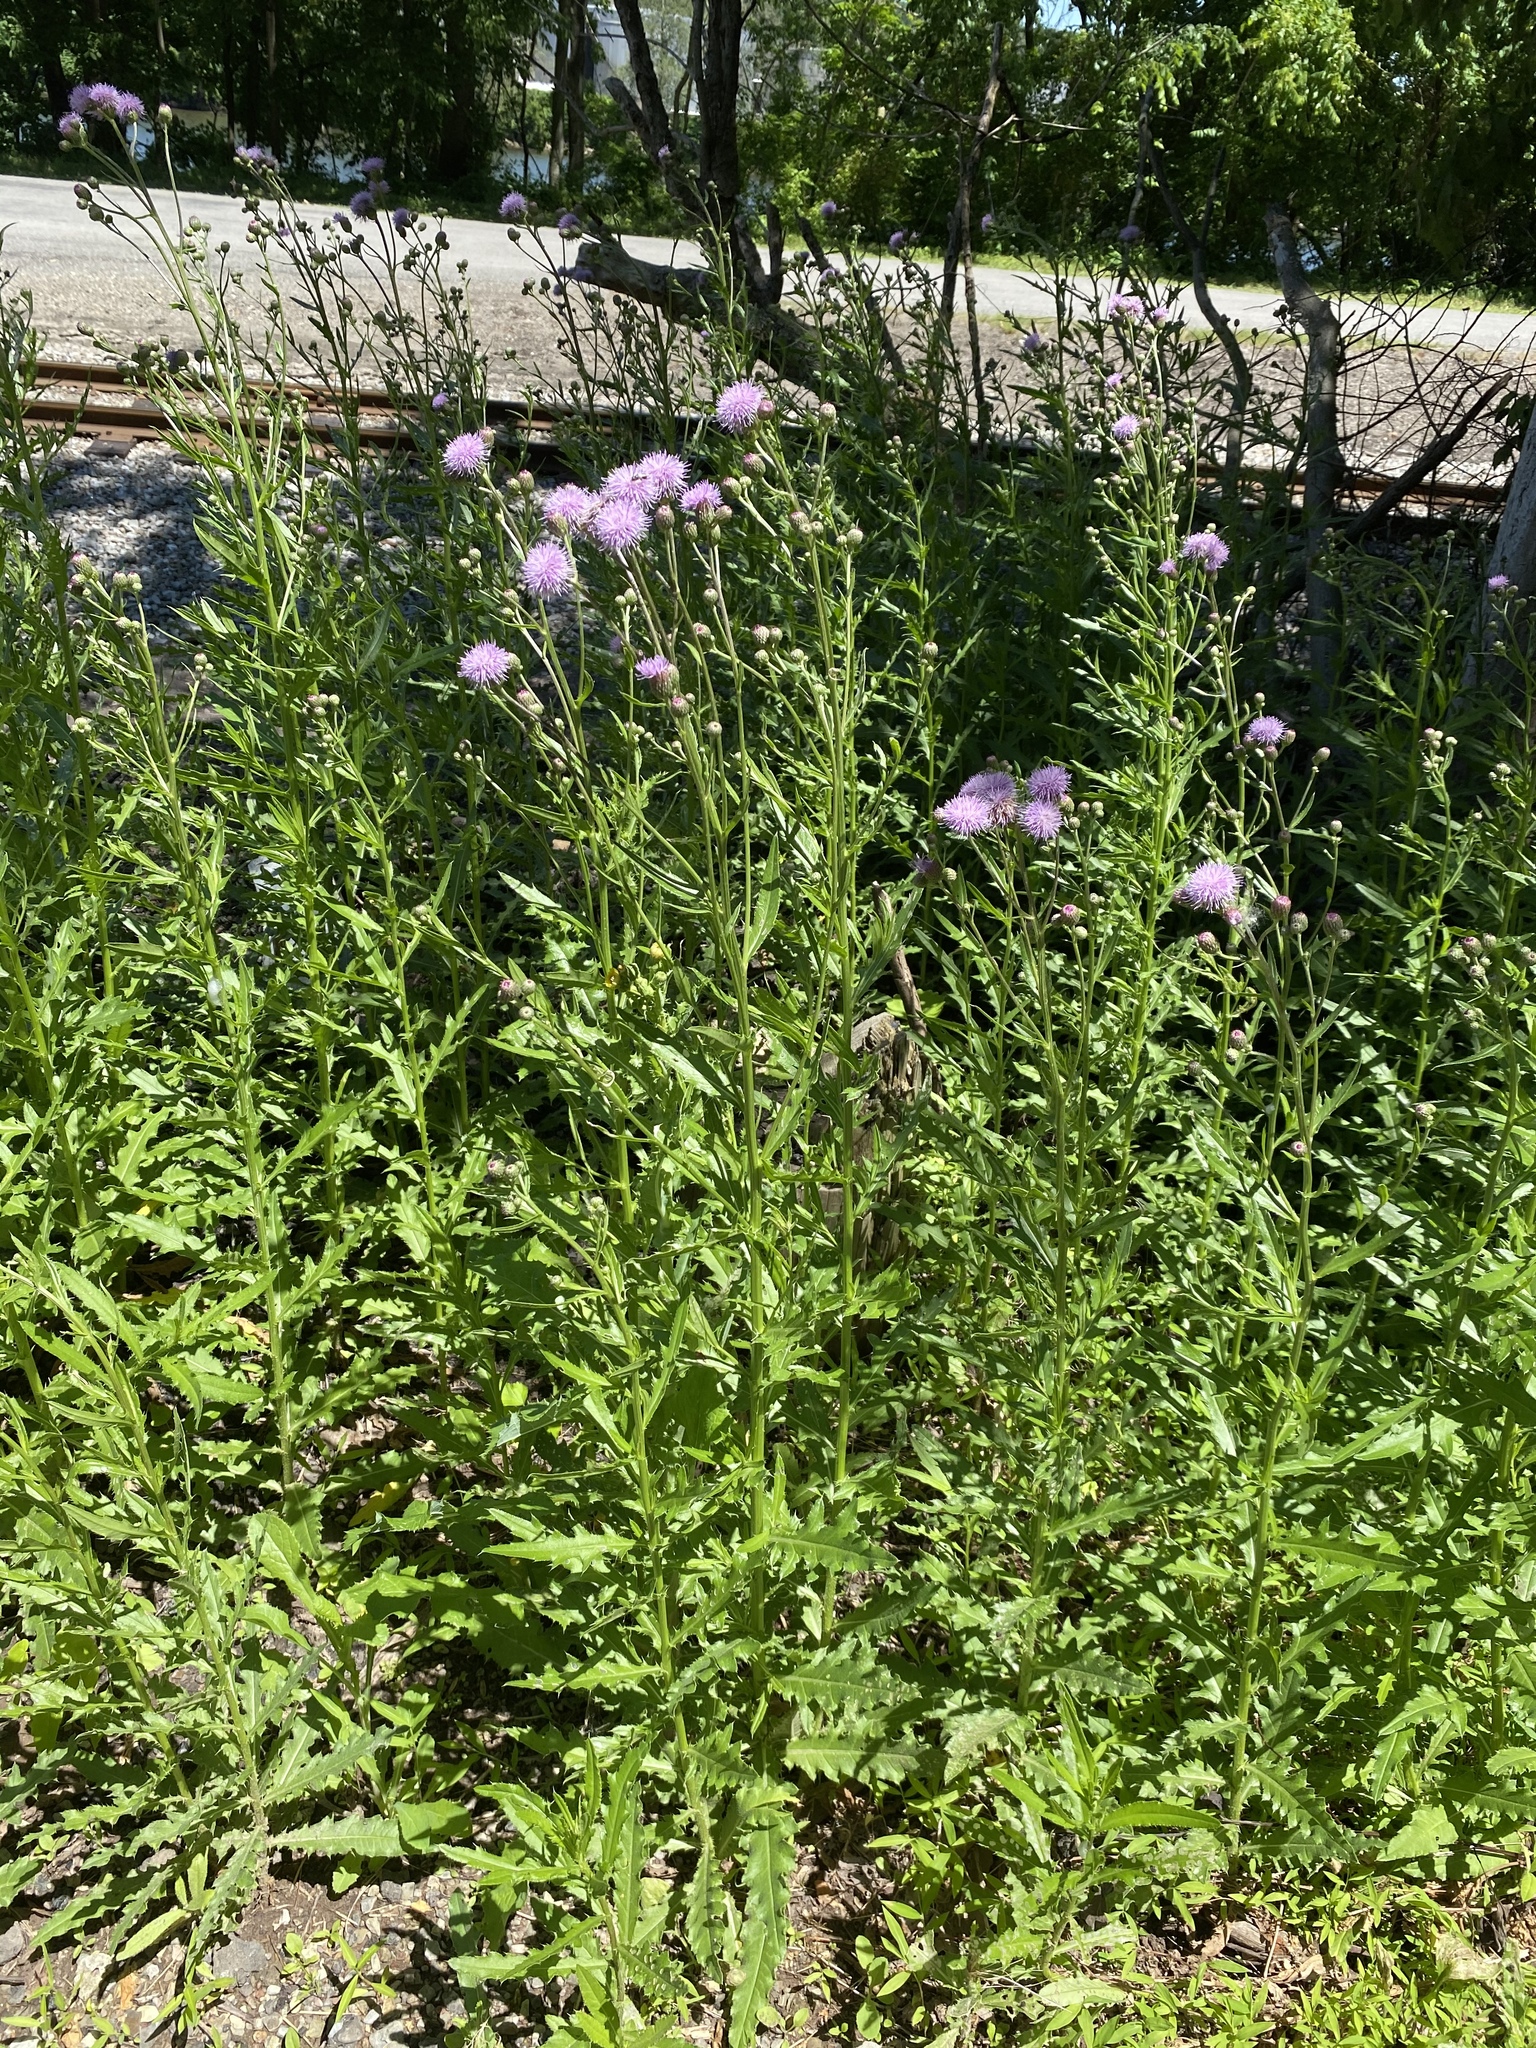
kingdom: Plantae
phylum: Tracheophyta
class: Magnoliopsida
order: Asterales
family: Asteraceae
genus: Cirsium
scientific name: Cirsium arvense
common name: Creeping thistle
